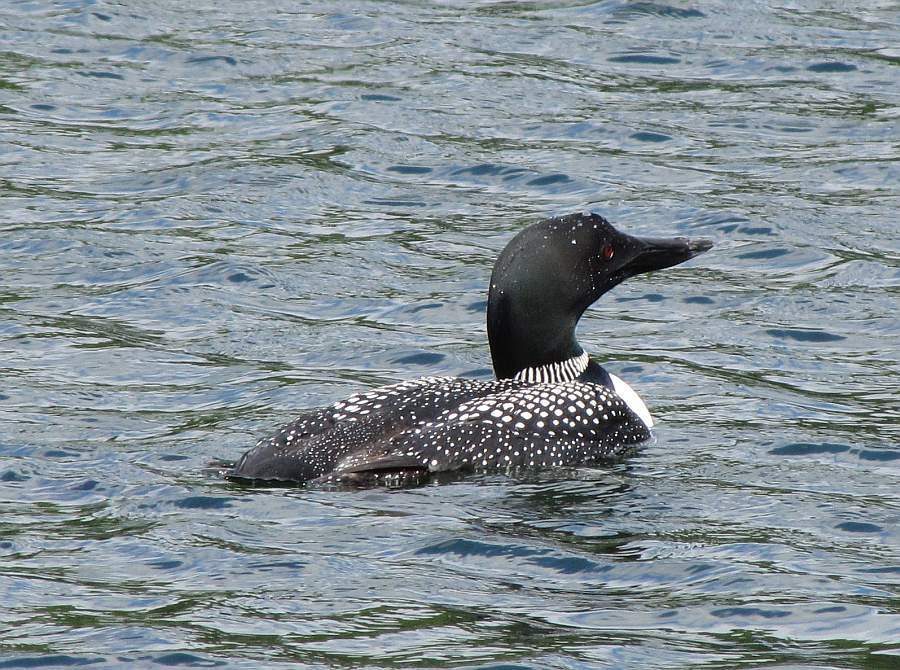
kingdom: Animalia
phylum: Chordata
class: Aves
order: Gaviiformes
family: Gaviidae
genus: Gavia
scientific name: Gavia immer
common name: Common loon
